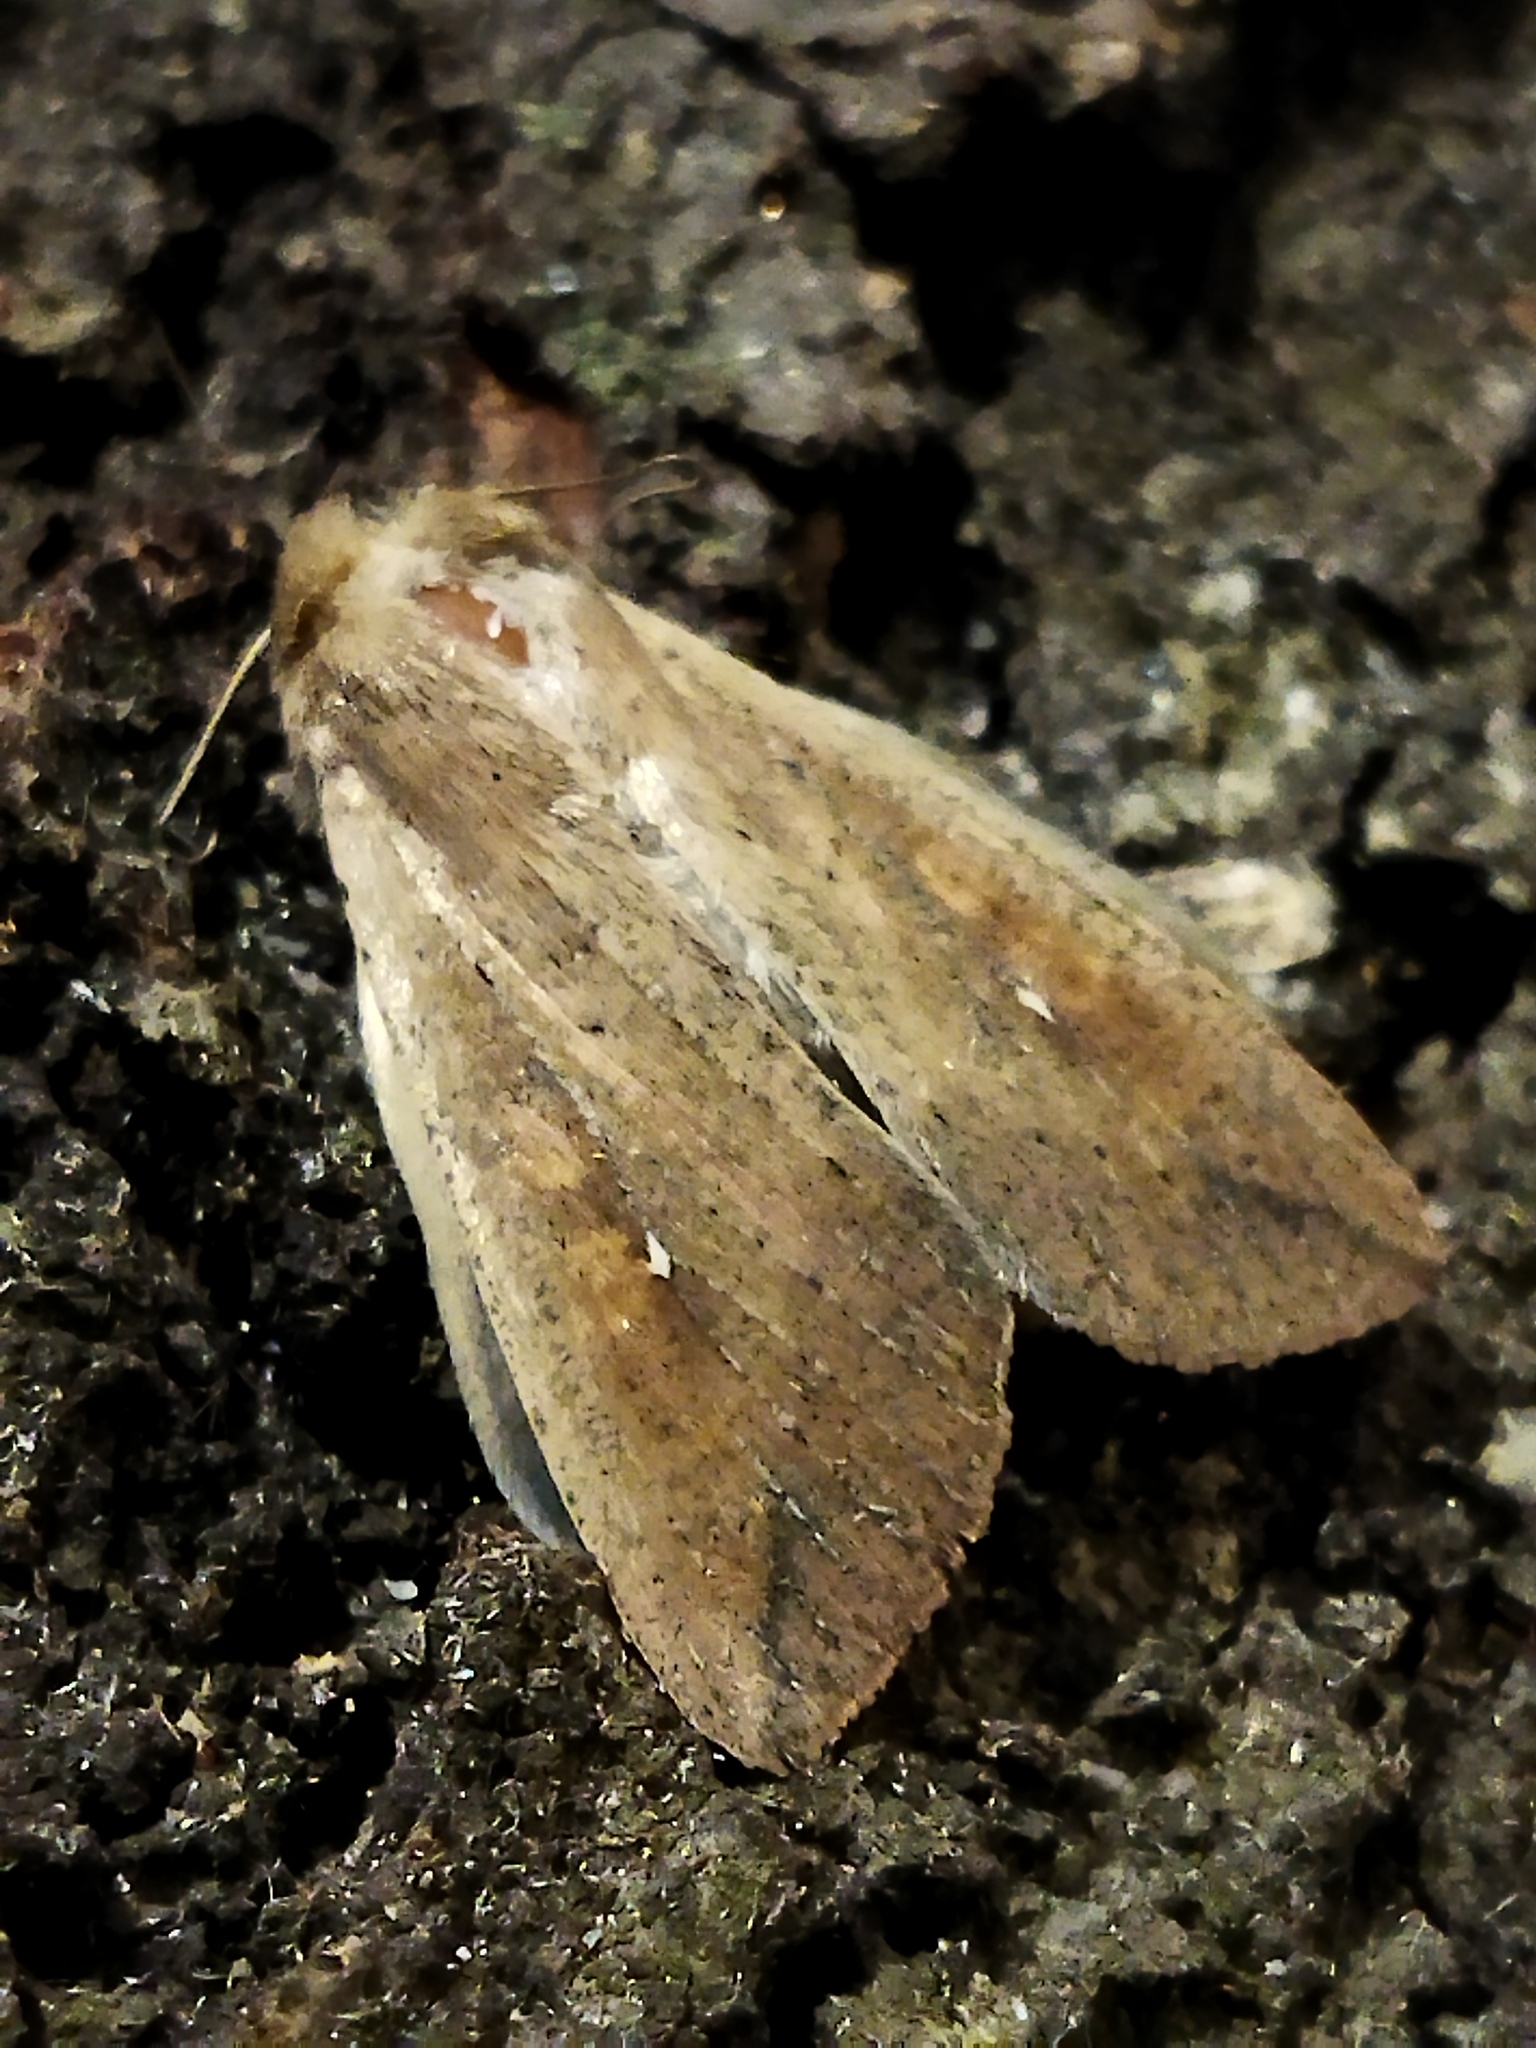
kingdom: Animalia
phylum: Arthropoda
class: Insecta
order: Lepidoptera
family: Noctuidae
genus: Mythimna
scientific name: Mythimna unipuncta
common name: White-speck
